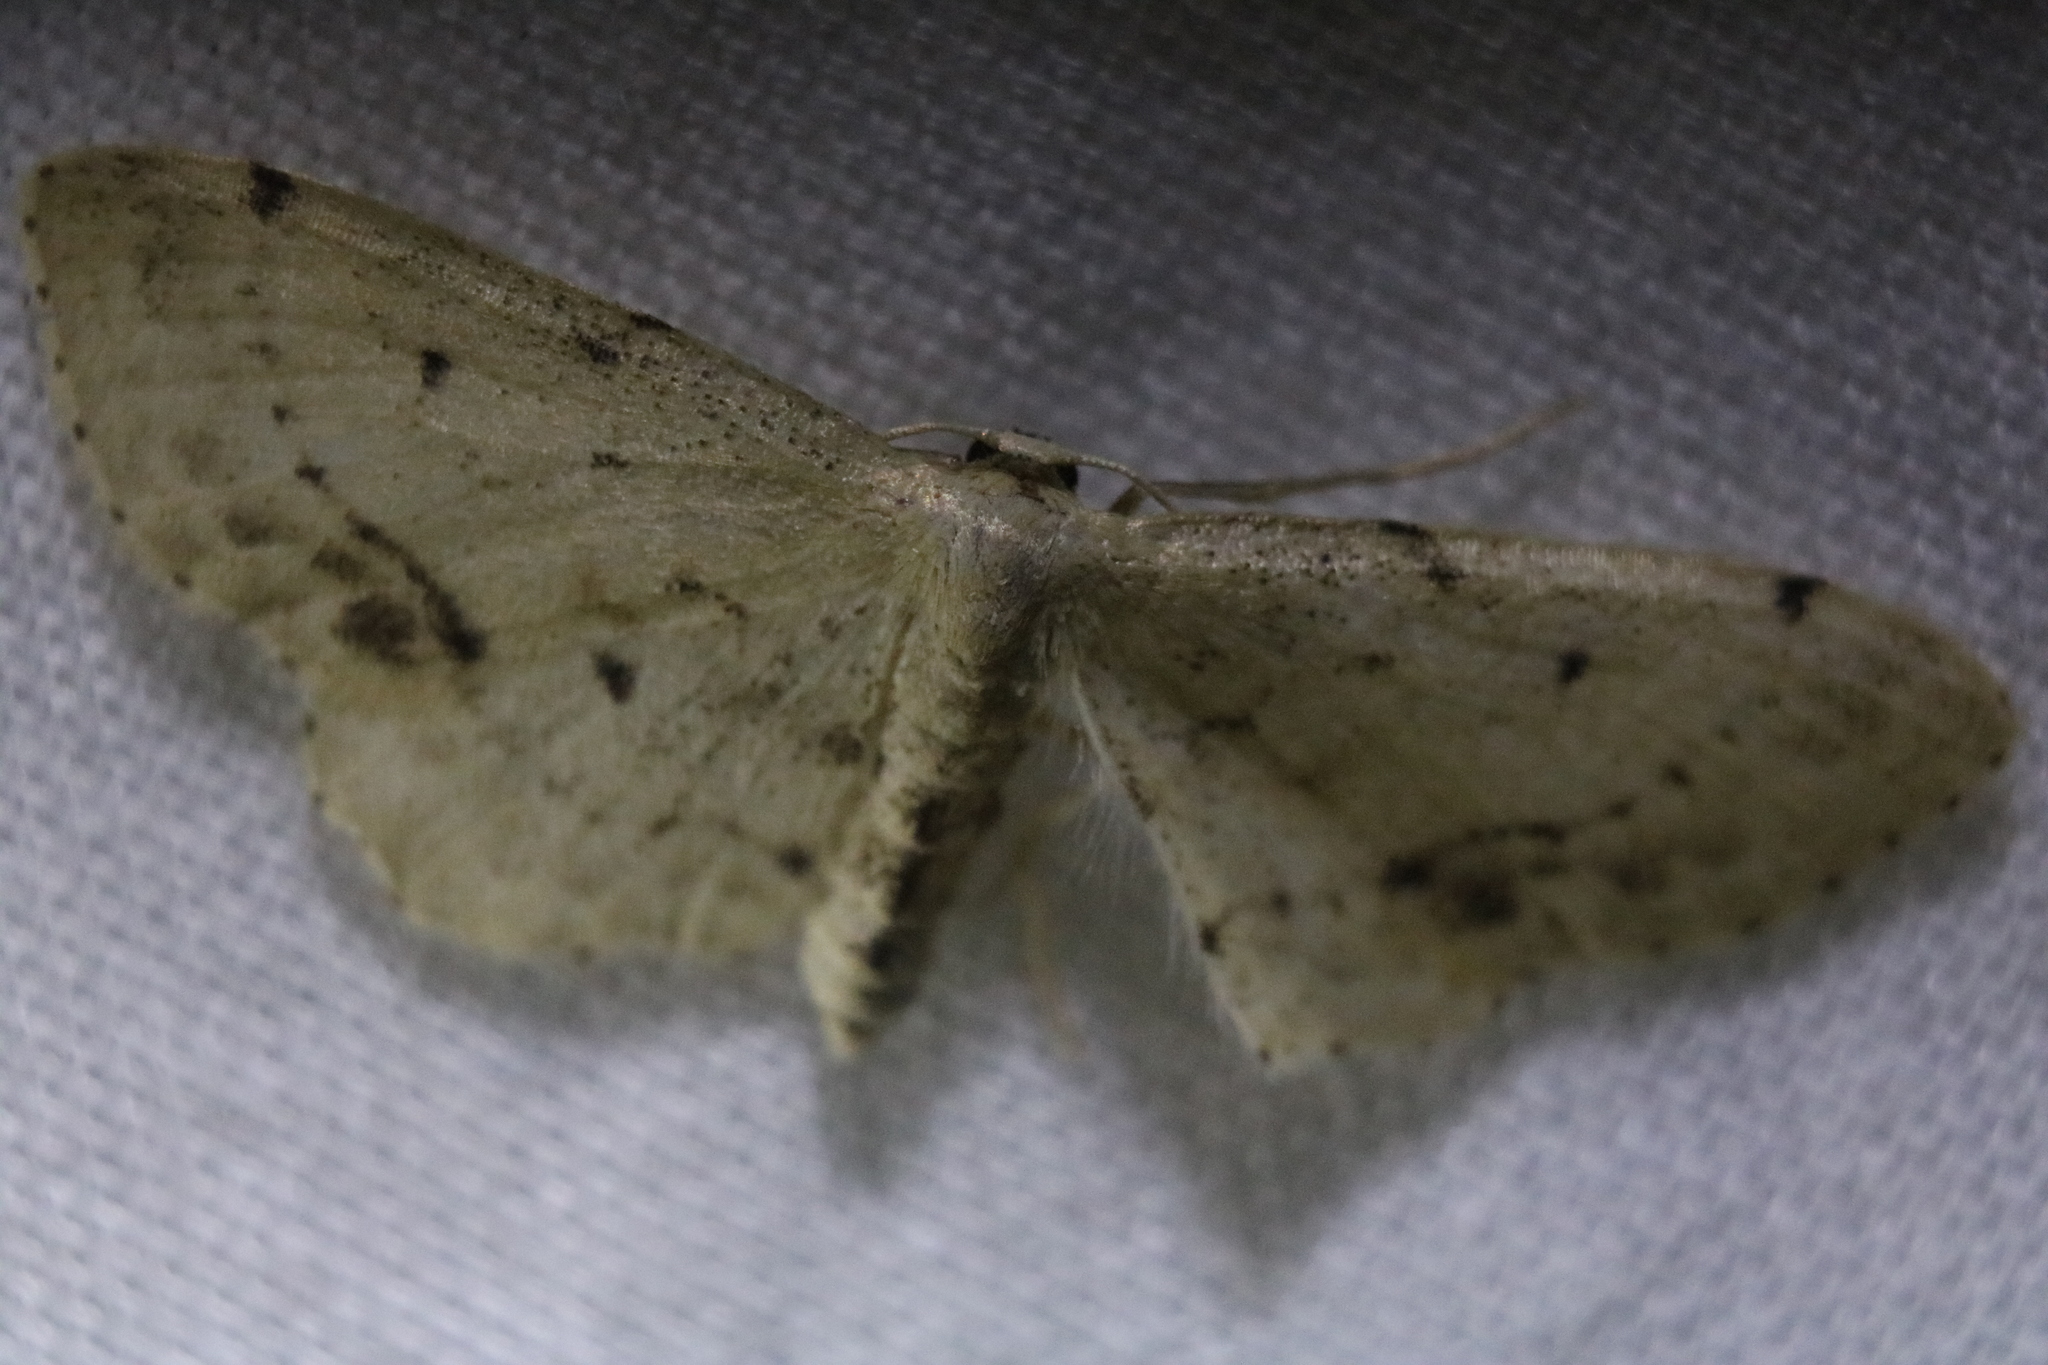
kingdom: Animalia
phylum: Arthropoda
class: Insecta
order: Lepidoptera
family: Geometridae
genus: Idaea
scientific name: Idaea dimidiata
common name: Single-dotted wave
